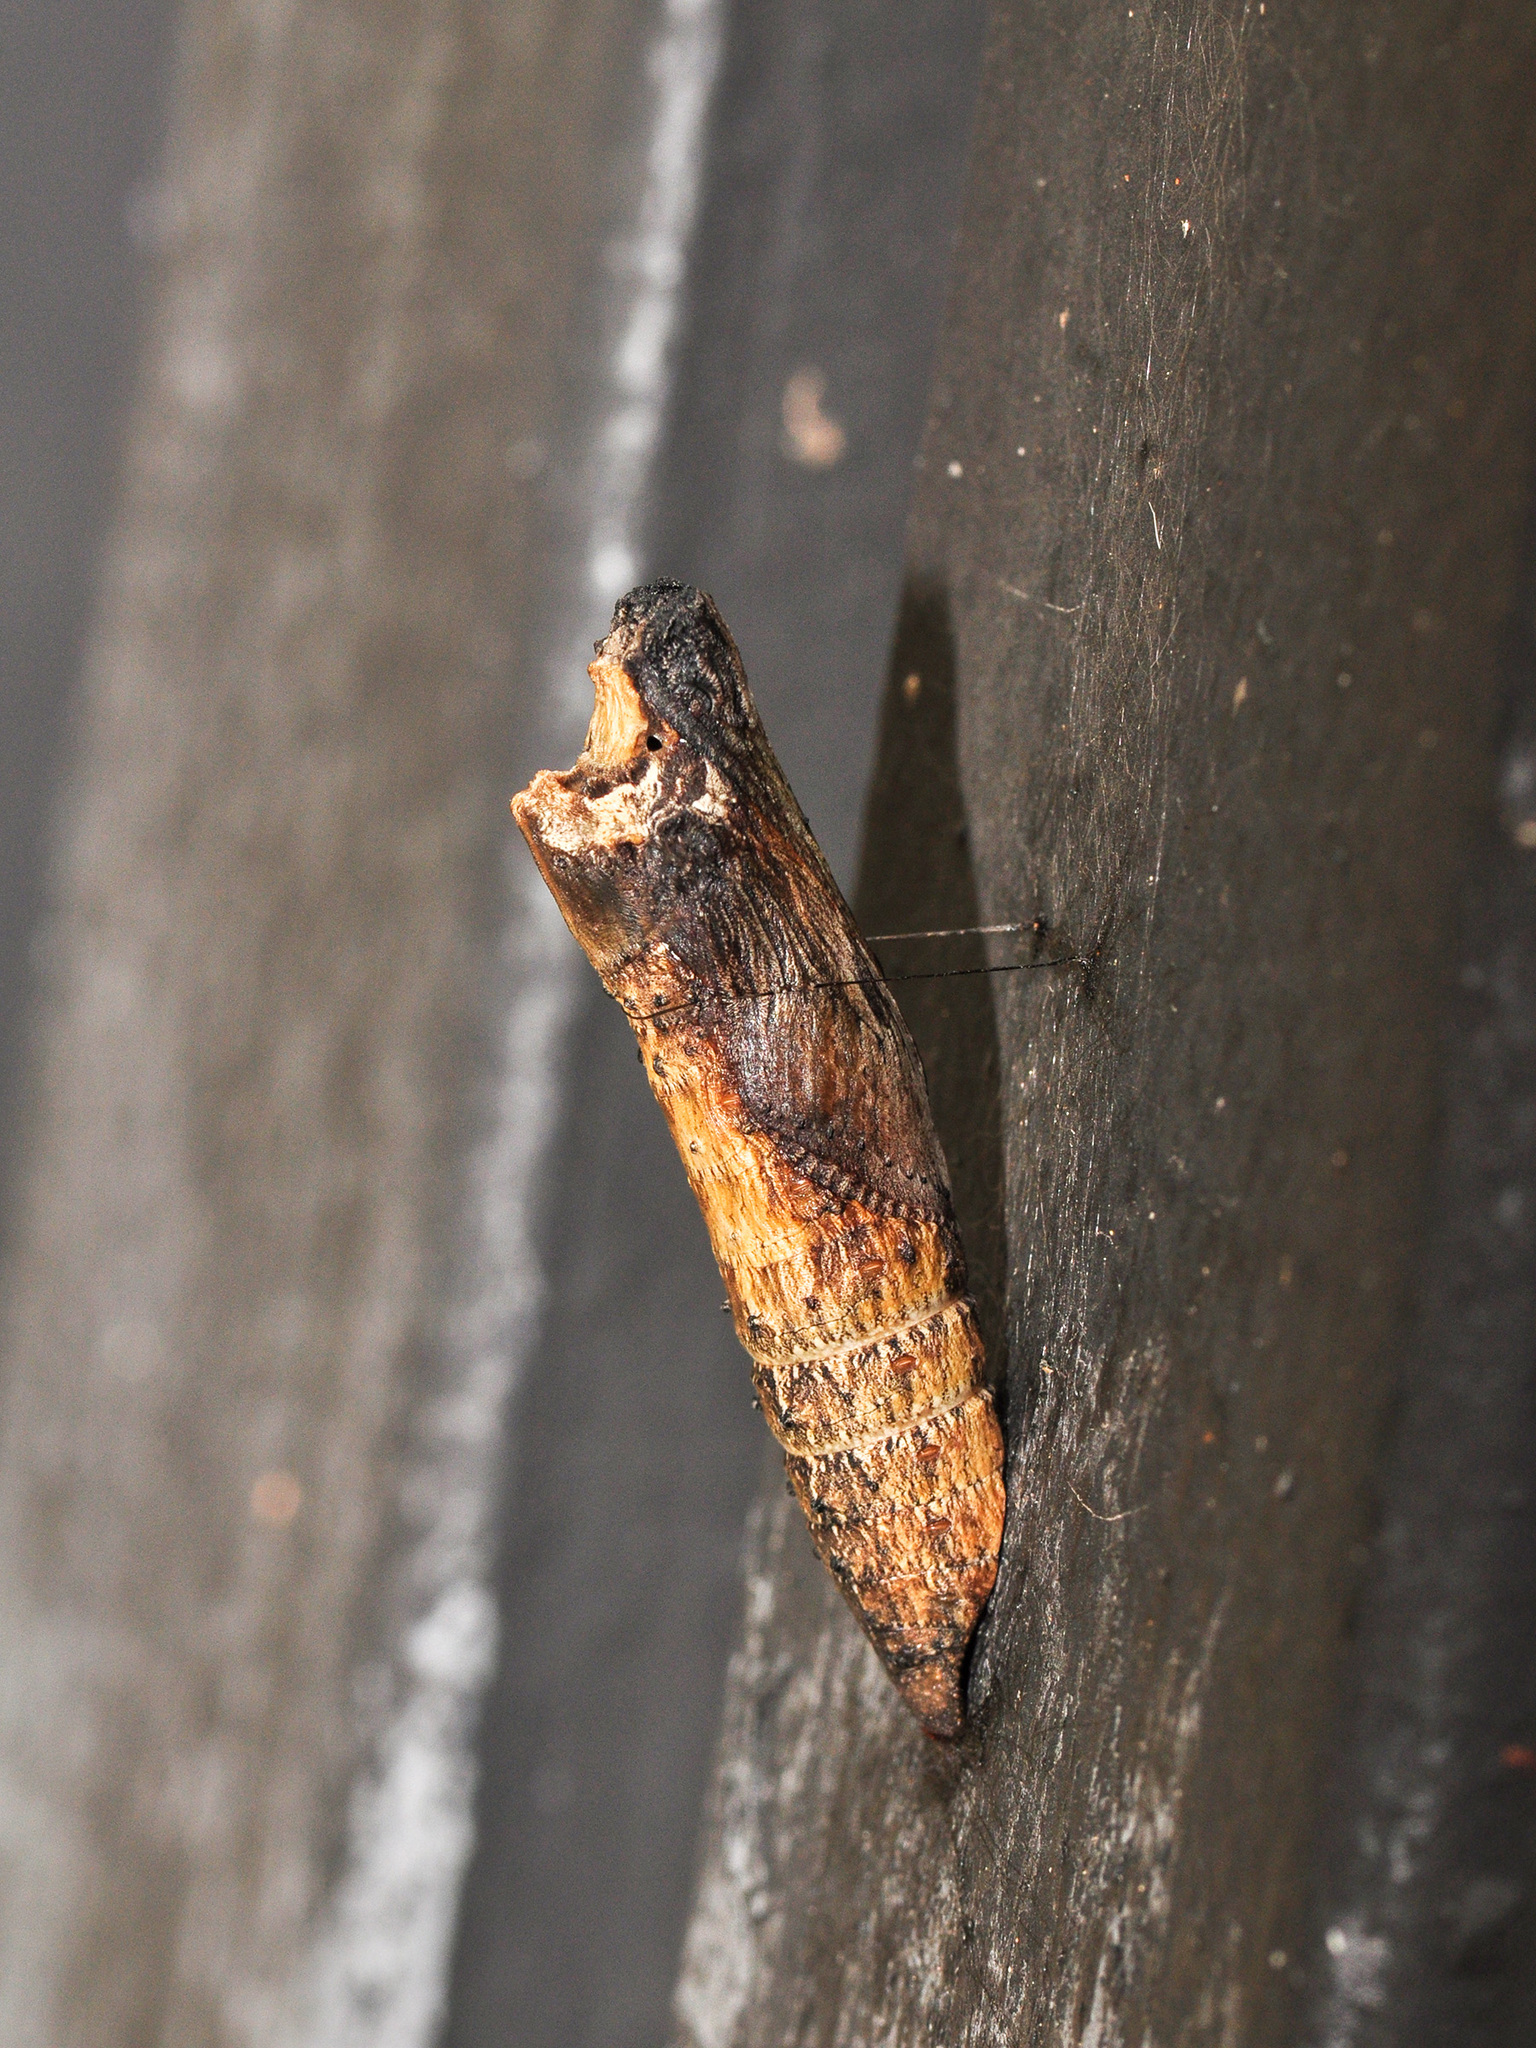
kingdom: Animalia
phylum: Arthropoda
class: Insecta
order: Lepidoptera
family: Papilionidae
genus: Chilasa
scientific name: Chilasa clytia
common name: Common mime
